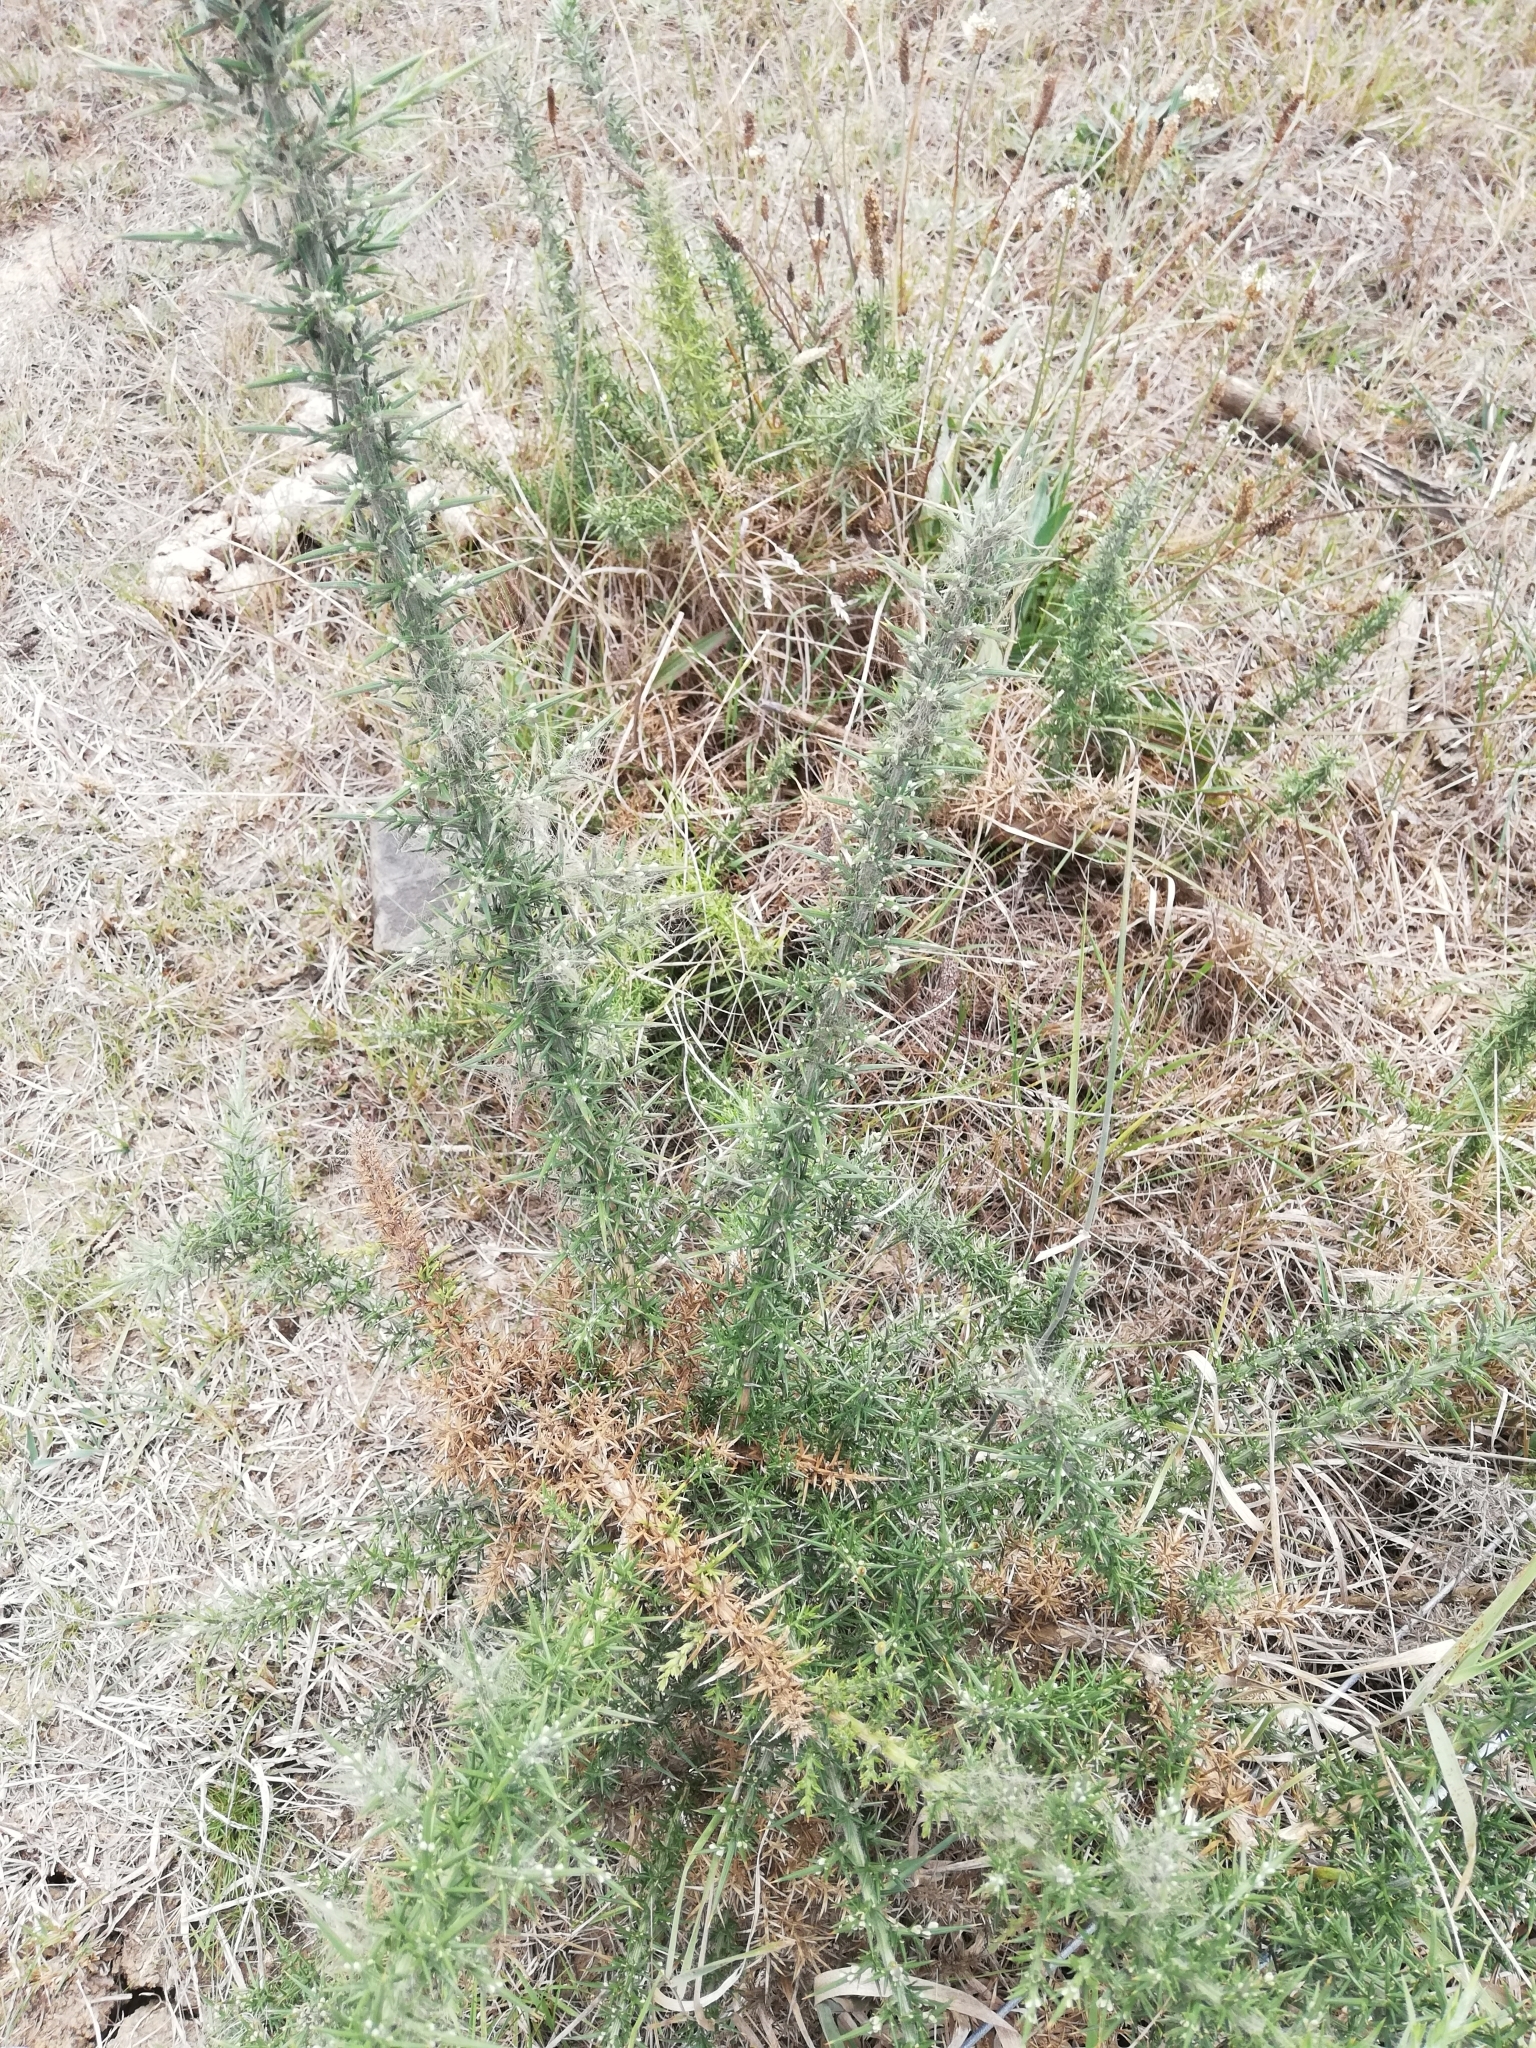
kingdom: Plantae
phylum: Tracheophyta
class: Magnoliopsida
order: Fabales
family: Fabaceae
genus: Ulex
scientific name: Ulex europaeus
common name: Common gorse
